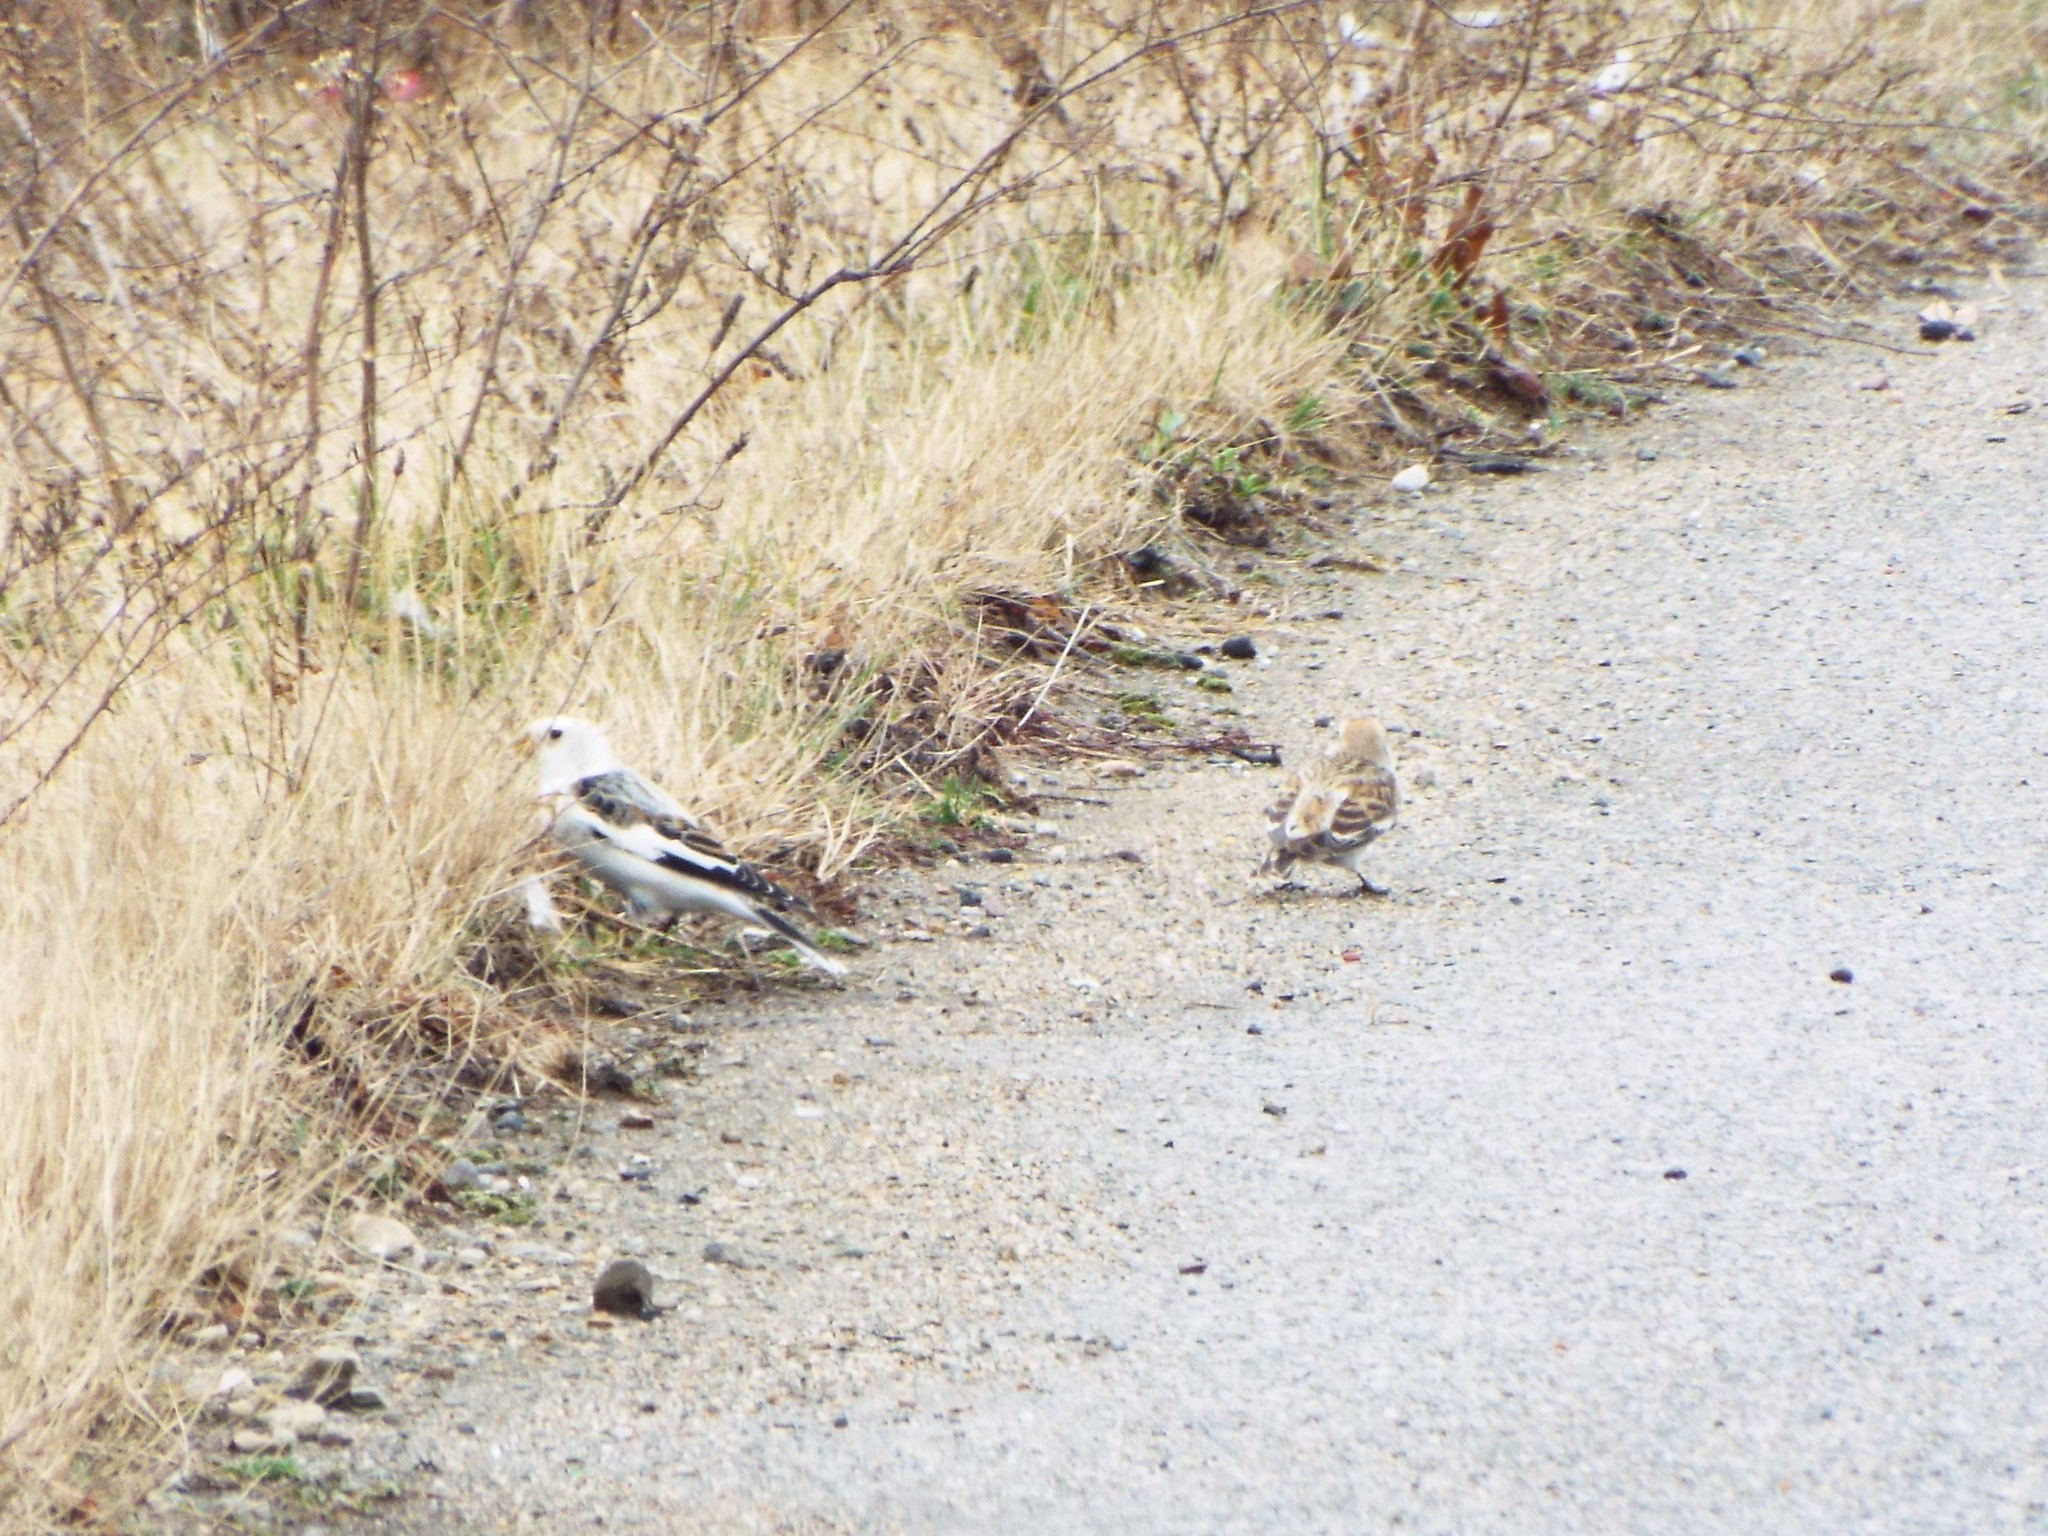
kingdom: Animalia
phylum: Chordata
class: Aves
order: Passeriformes
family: Calcariidae
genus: Plectrophenax
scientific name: Plectrophenax nivalis
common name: Snow bunting
